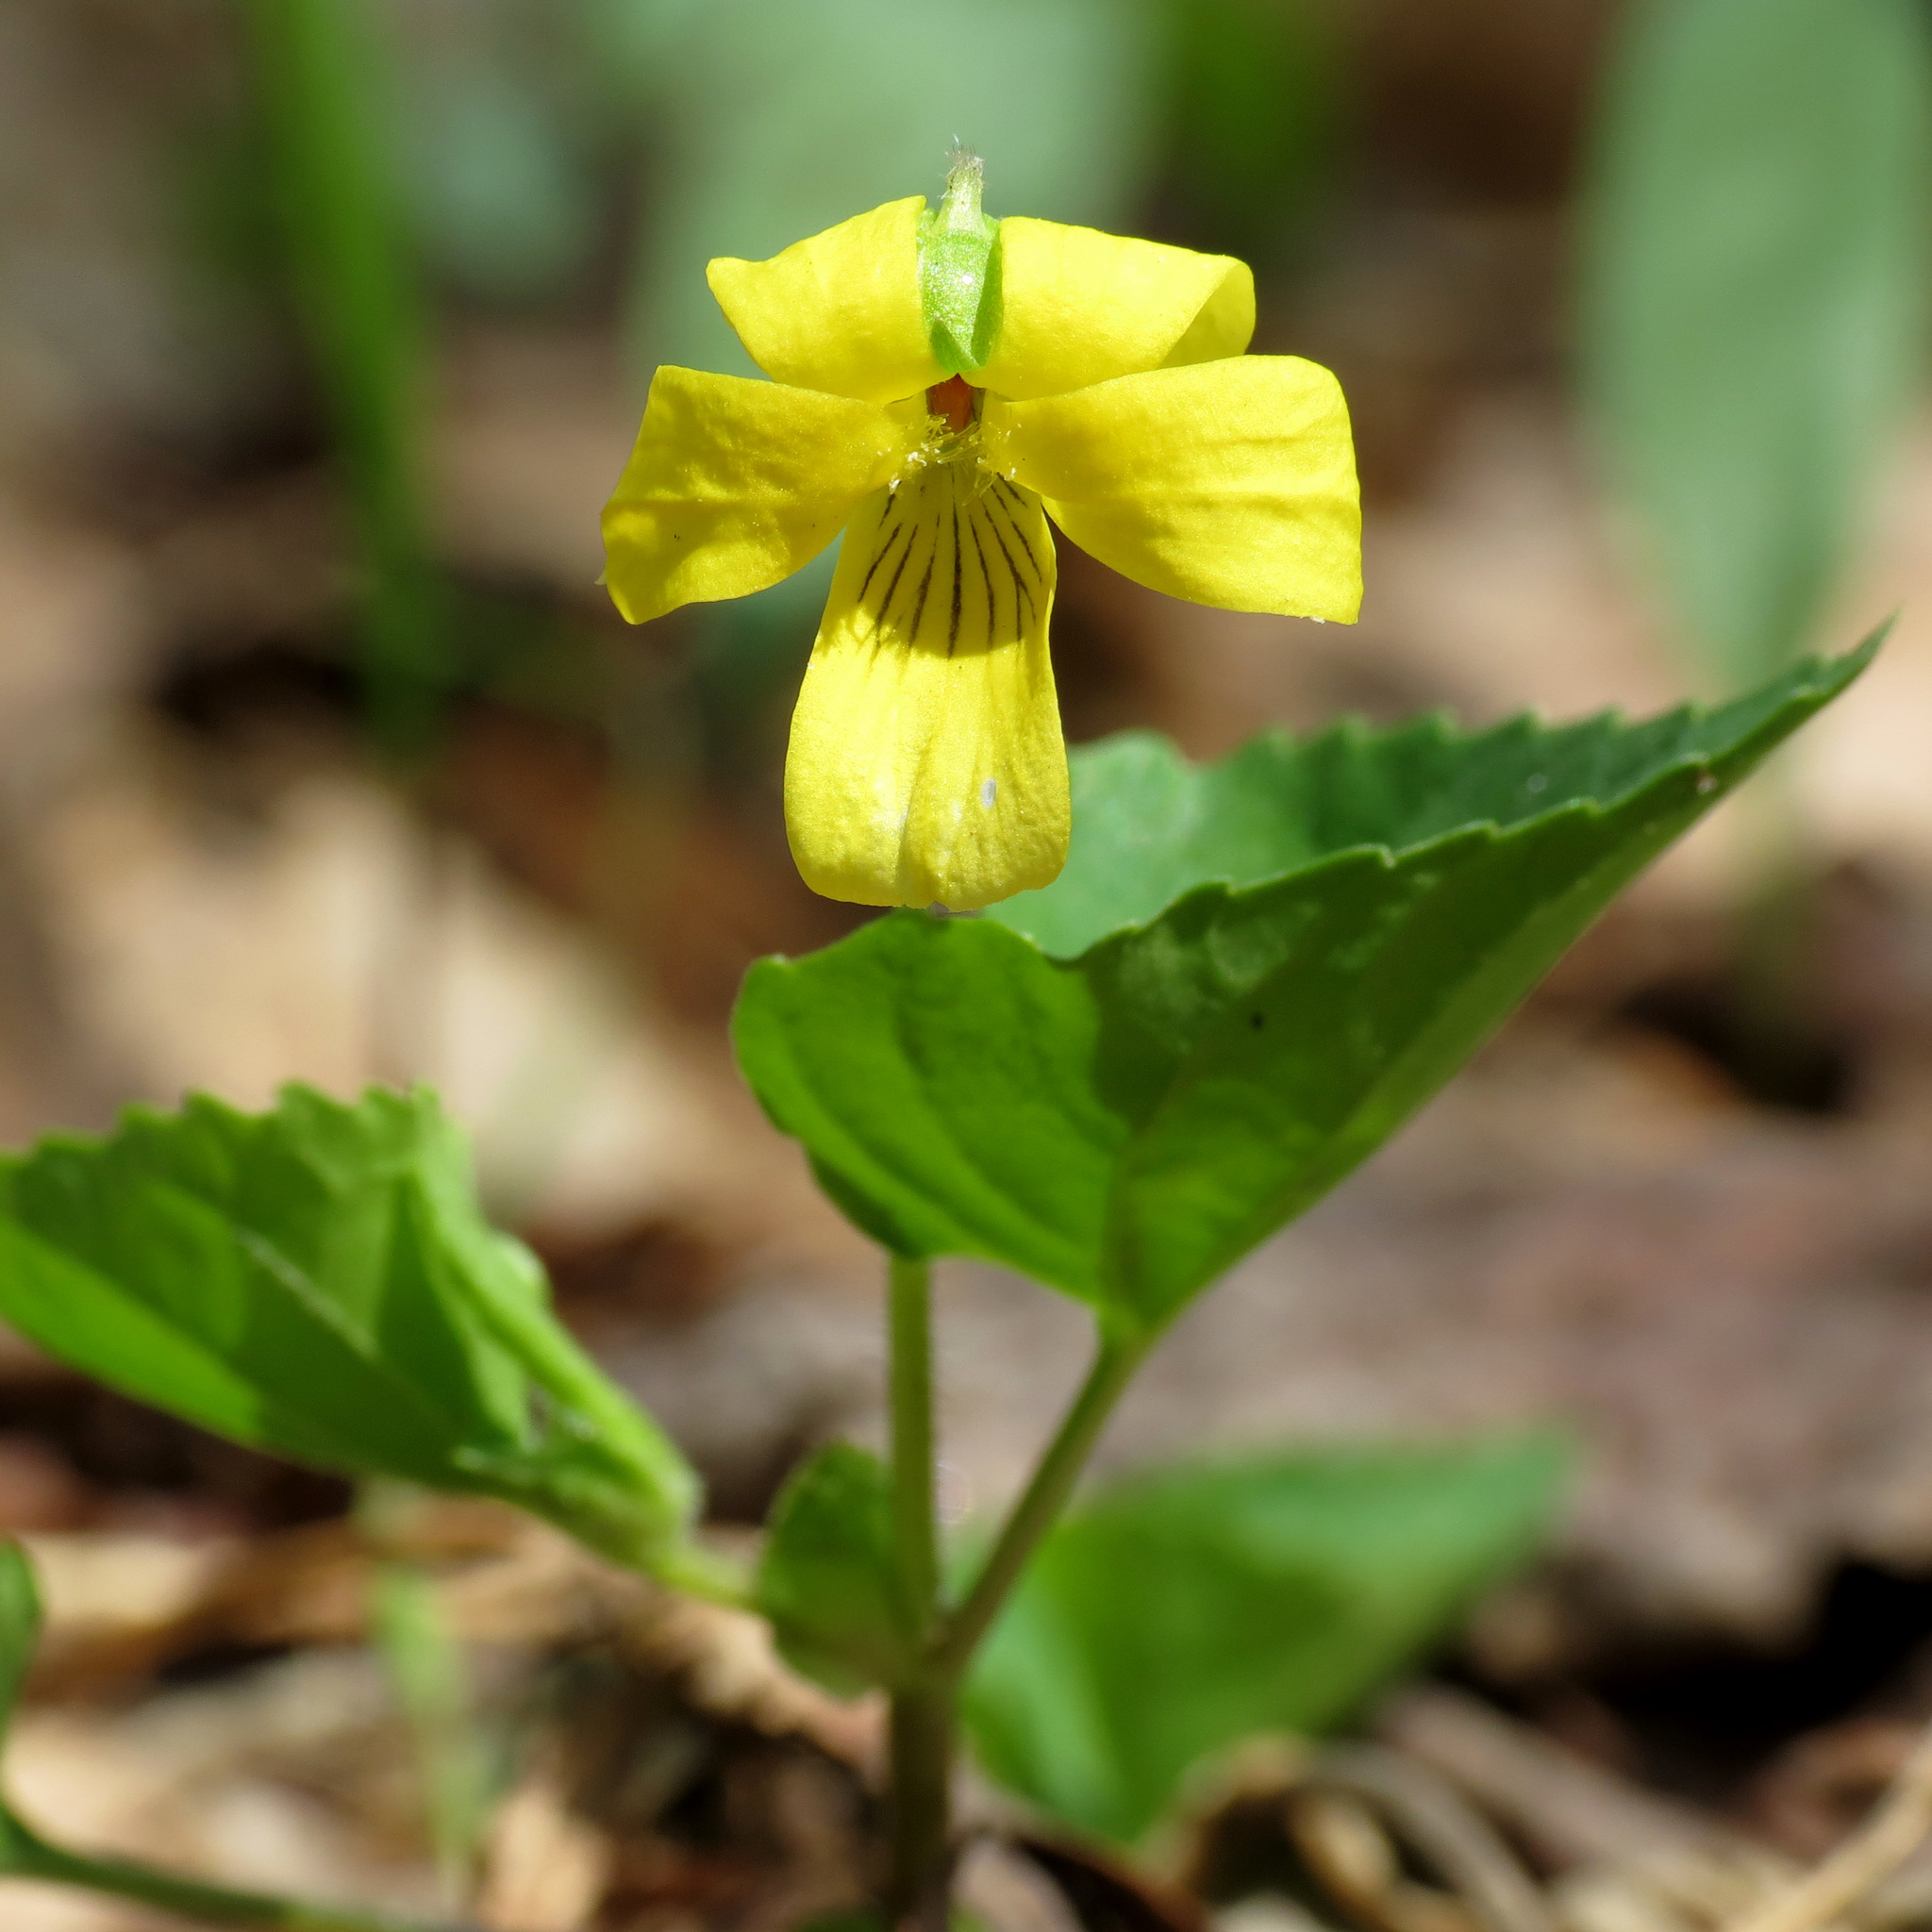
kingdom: Plantae
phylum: Tracheophyta
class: Magnoliopsida
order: Malpighiales
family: Violaceae
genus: Viola
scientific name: Viola eriocarpa
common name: Smooth yellow violet
